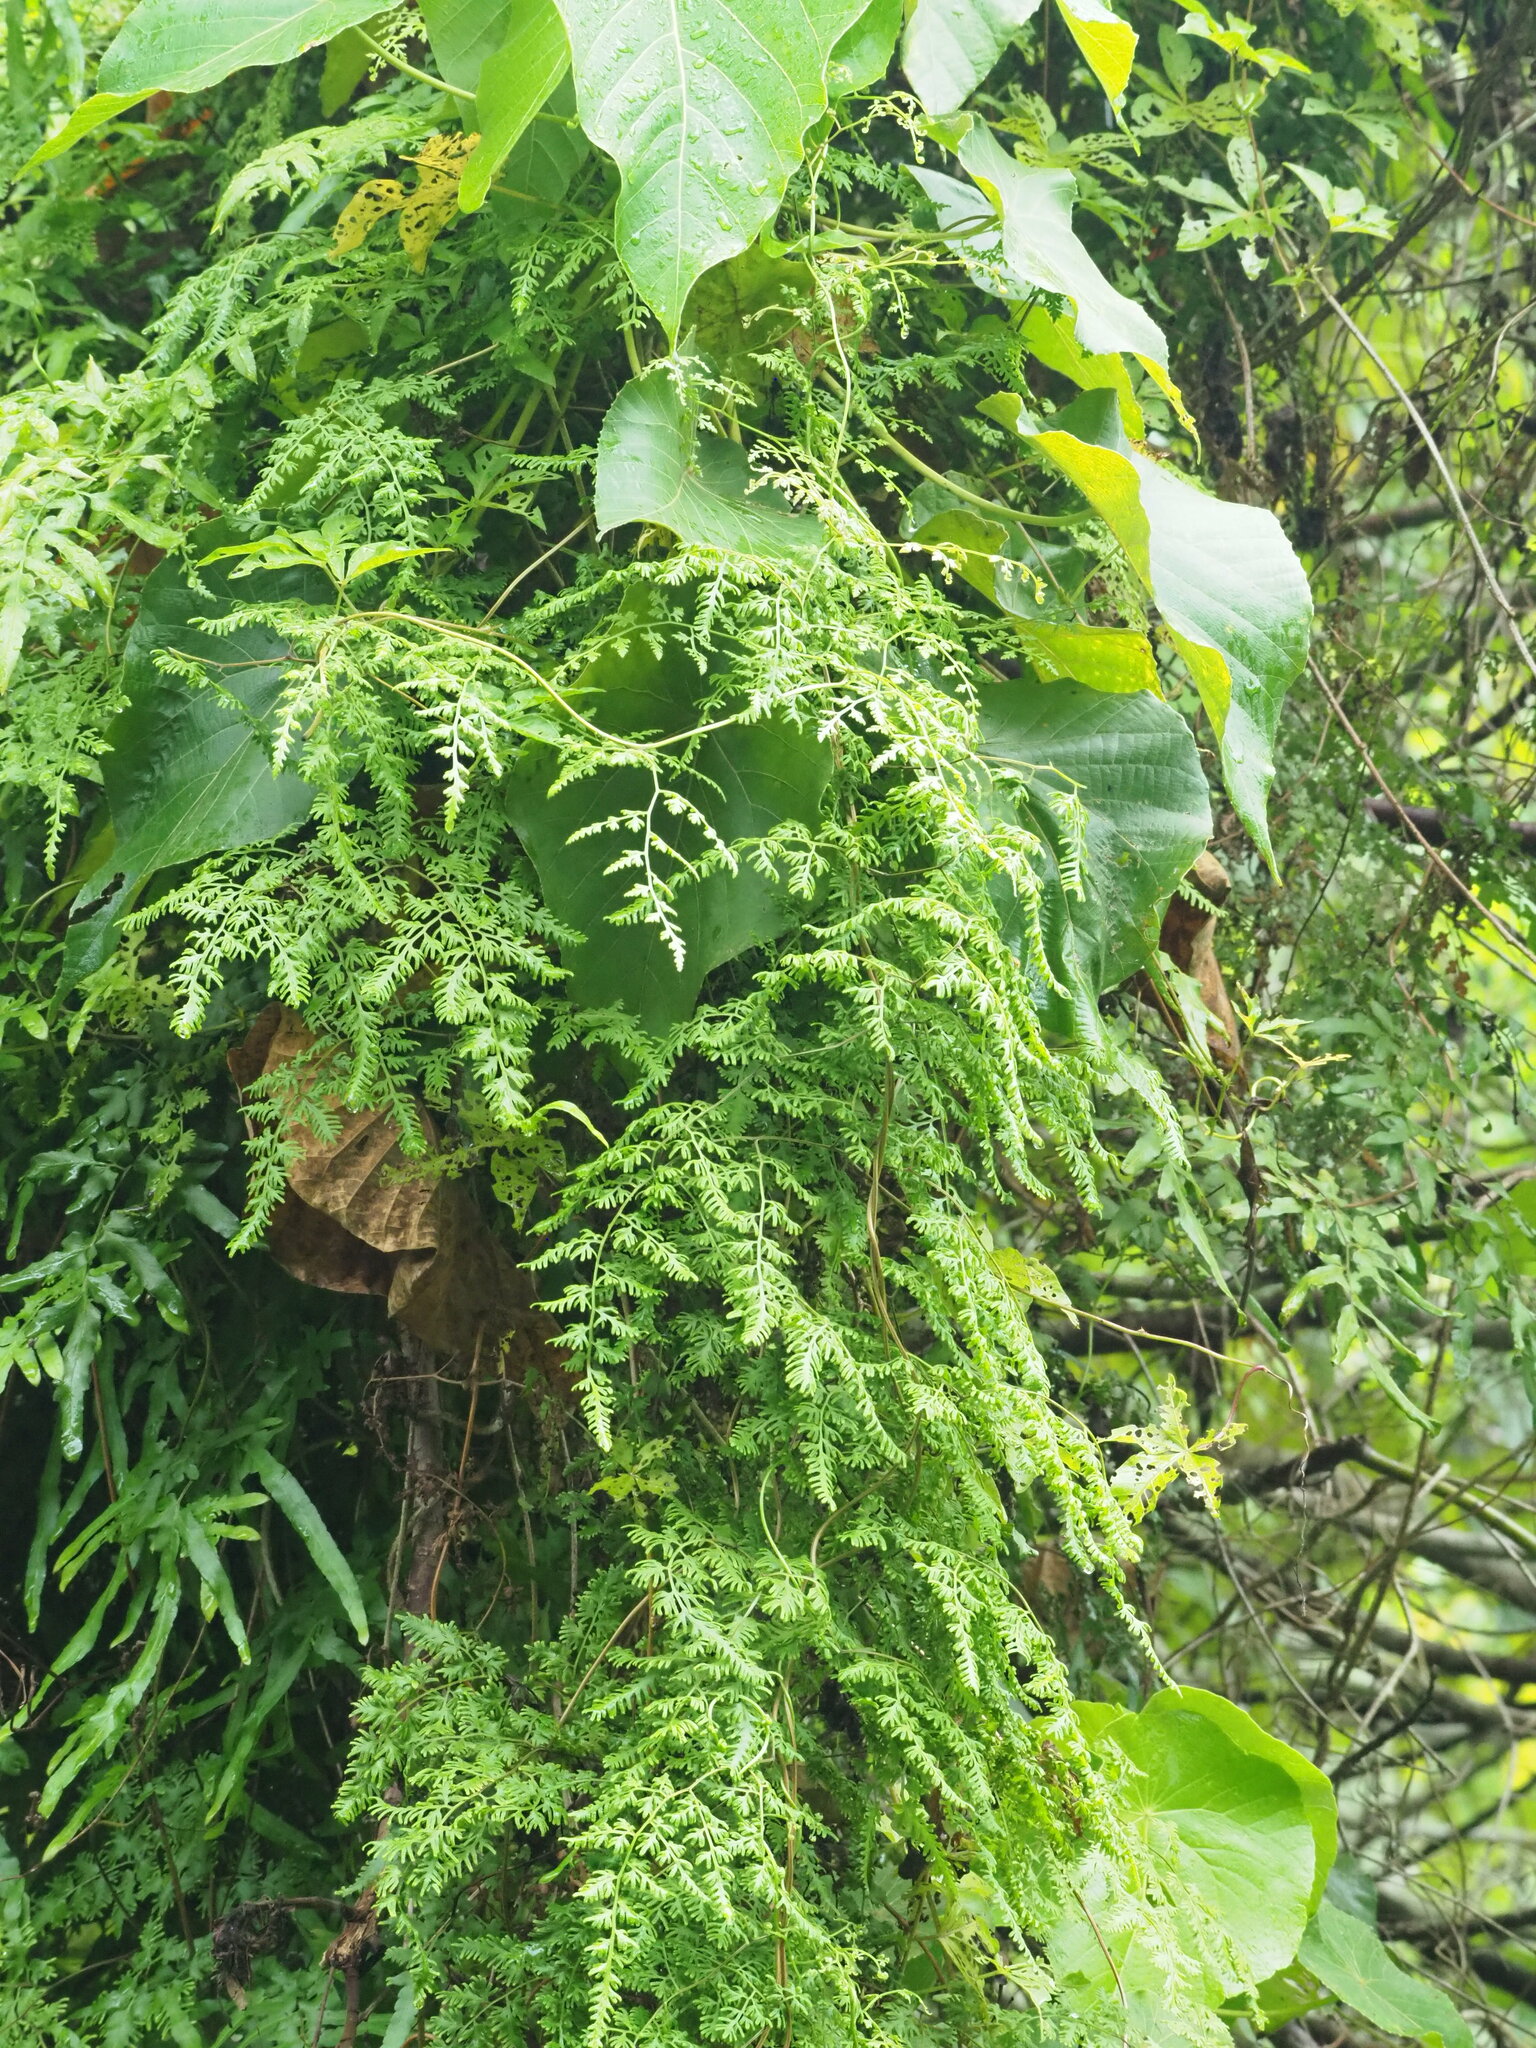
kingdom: Plantae
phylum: Tracheophyta
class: Polypodiopsida
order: Schizaeales
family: Lygodiaceae
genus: Lygodium
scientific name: Lygodium japonicum
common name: Japanese climbing fern
